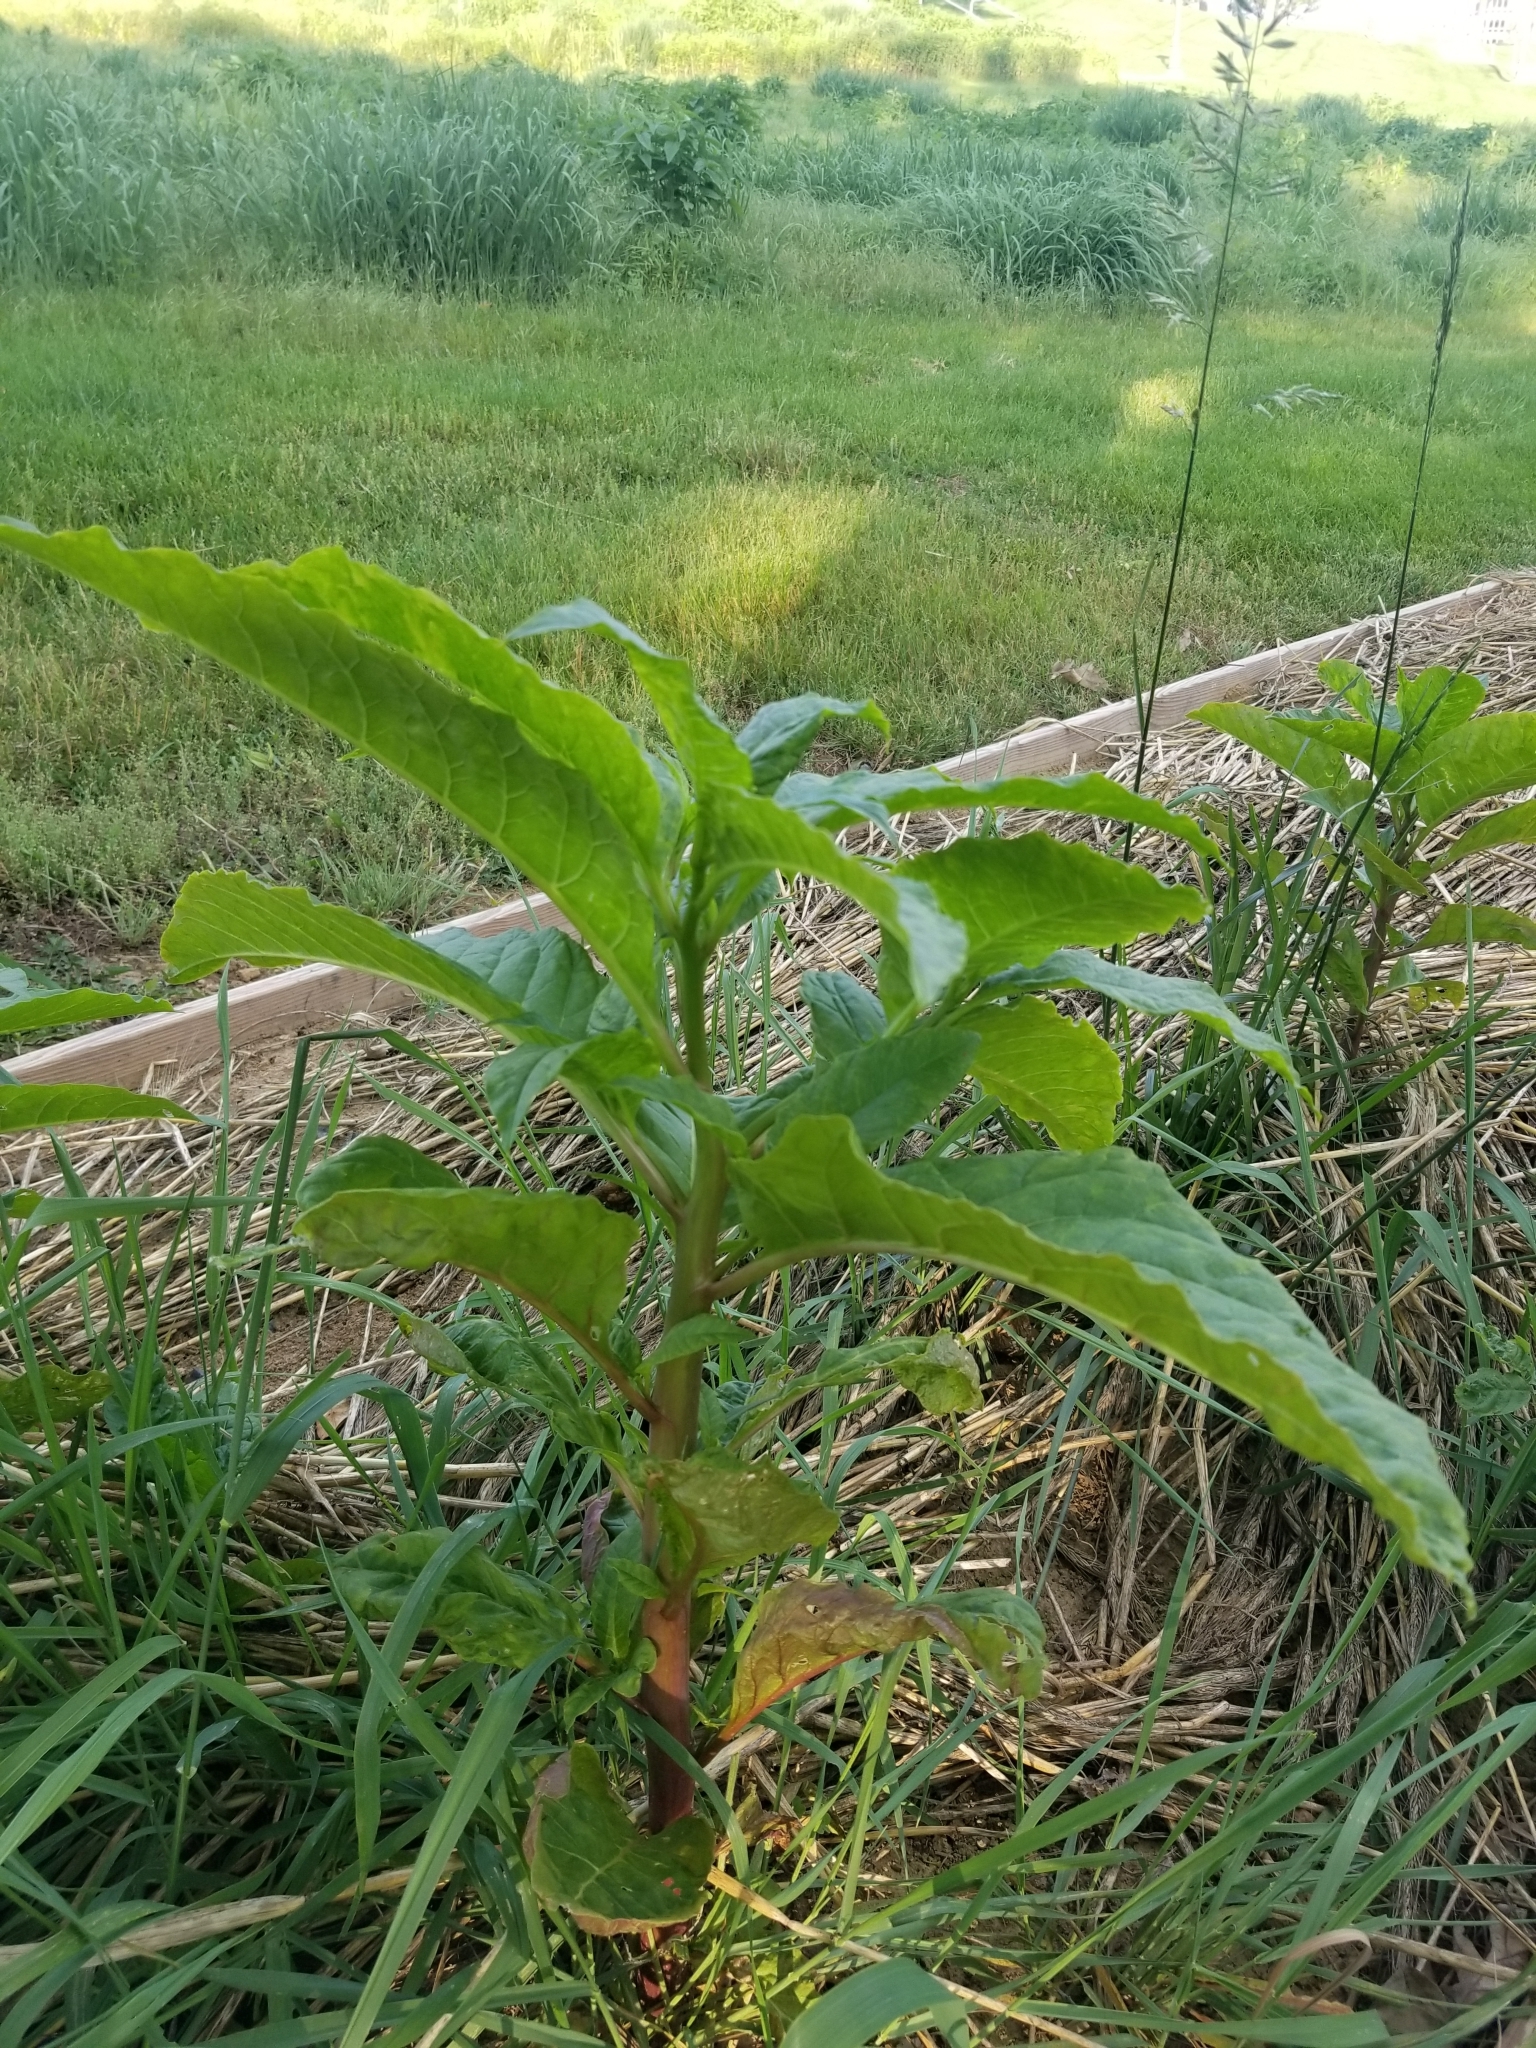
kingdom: Plantae
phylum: Tracheophyta
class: Magnoliopsida
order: Caryophyllales
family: Phytolaccaceae
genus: Phytolacca
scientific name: Phytolacca americana
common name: American pokeweed
